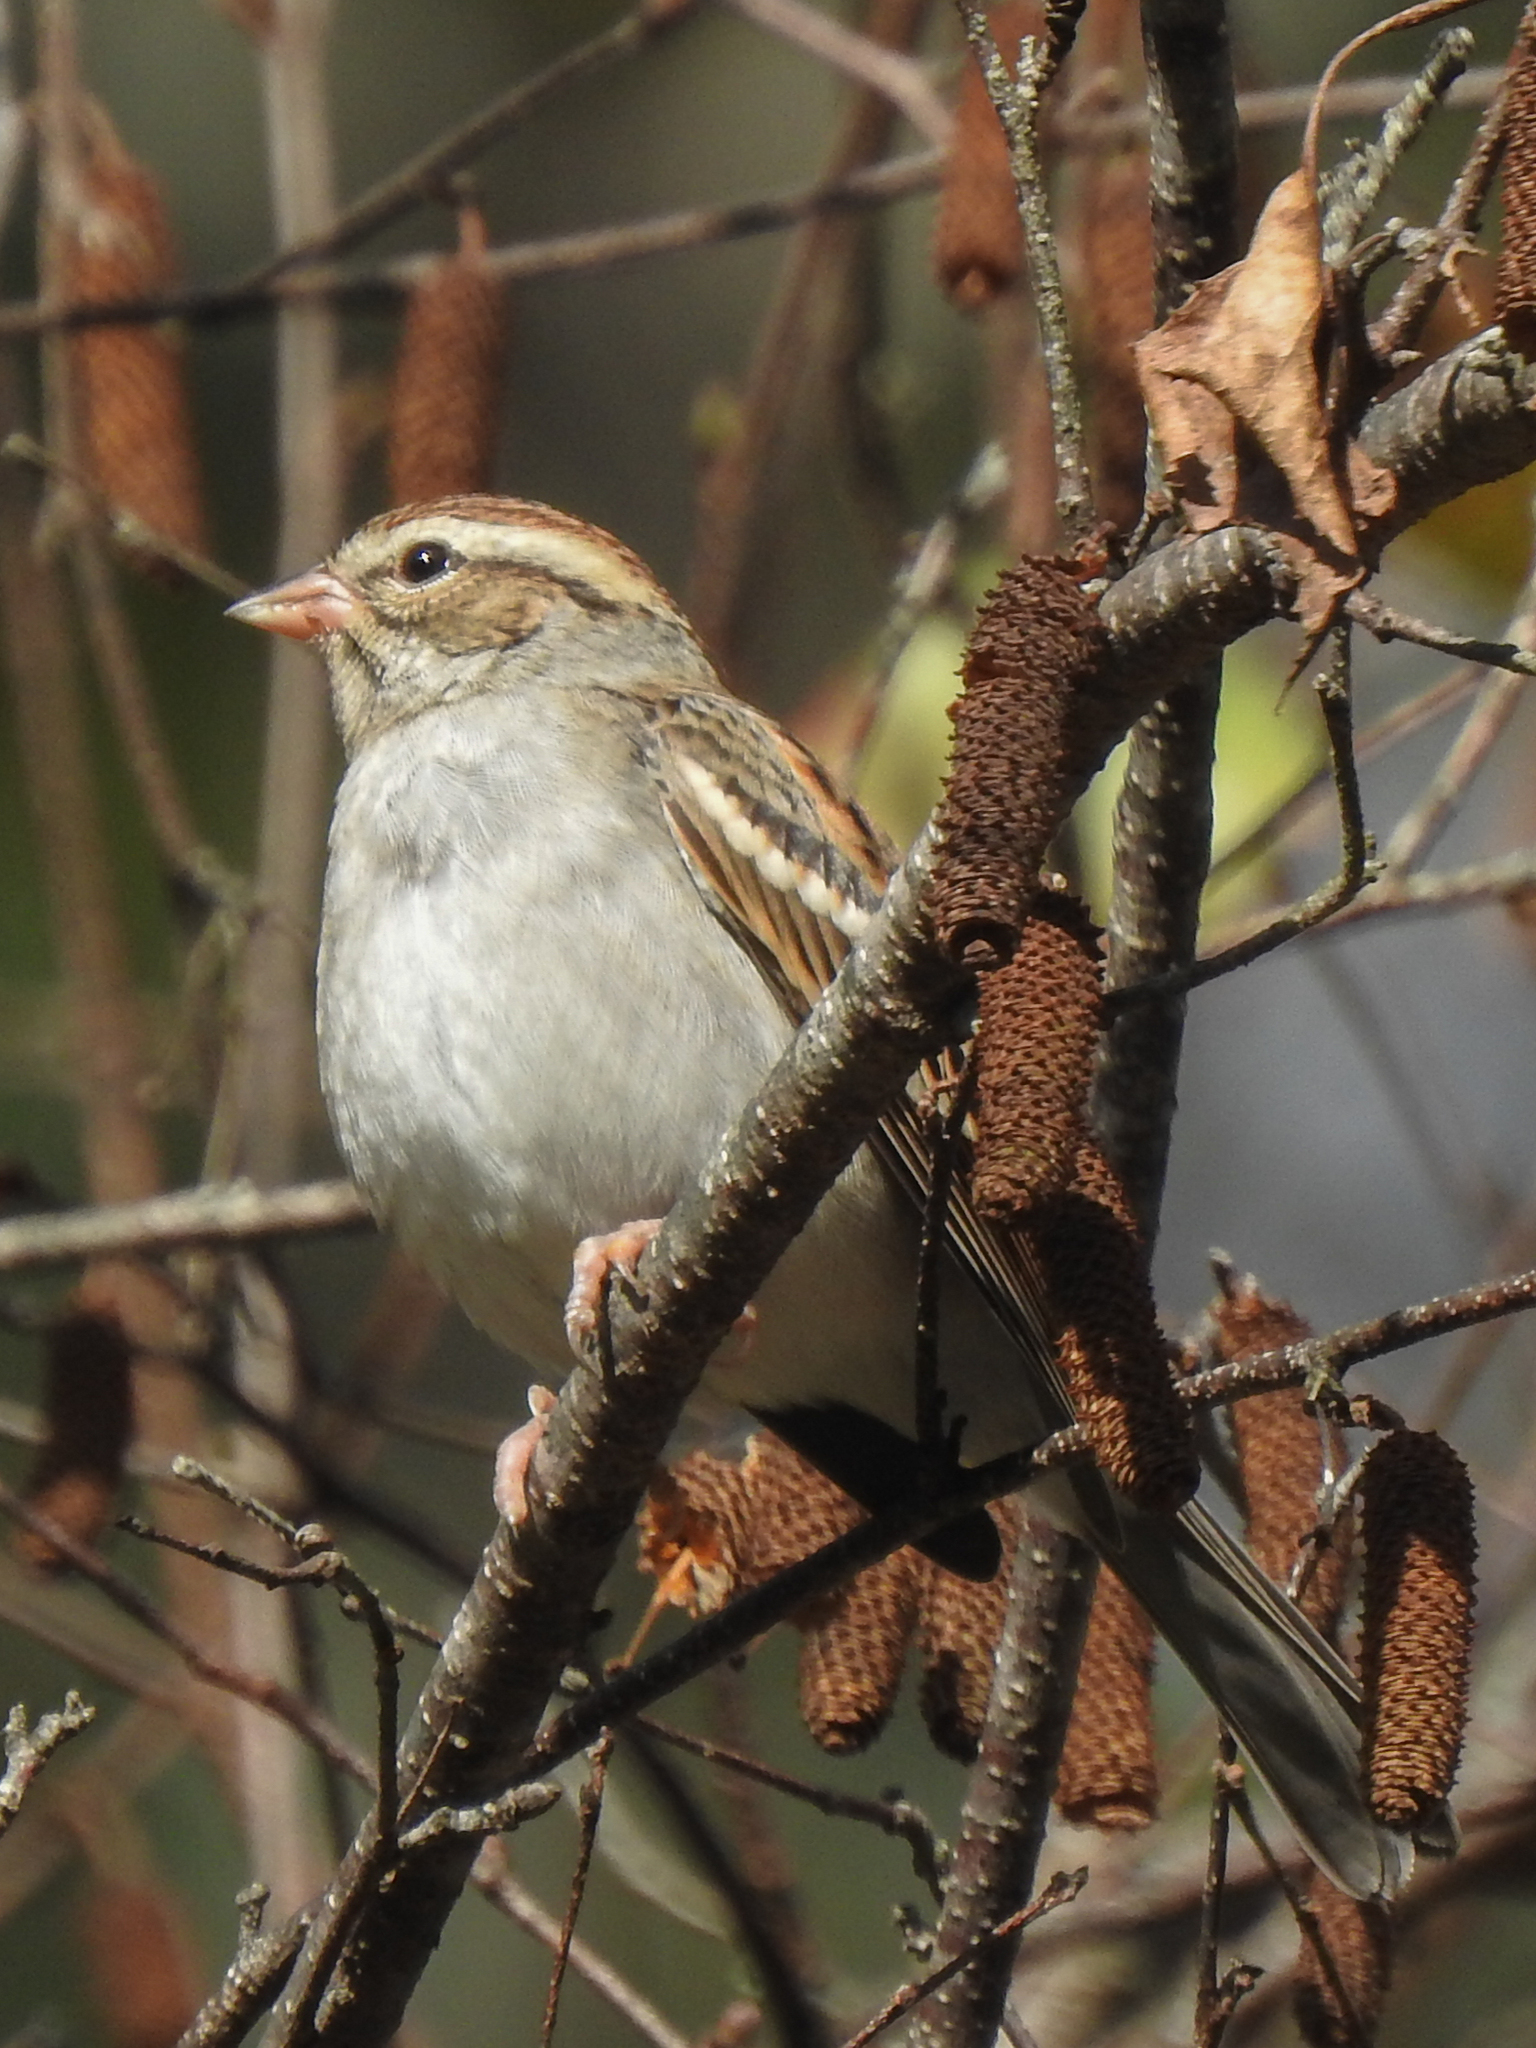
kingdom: Animalia
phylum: Chordata
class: Aves
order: Passeriformes
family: Passerellidae
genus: Spizella
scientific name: Spizella passerina
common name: Chipping sparrow
